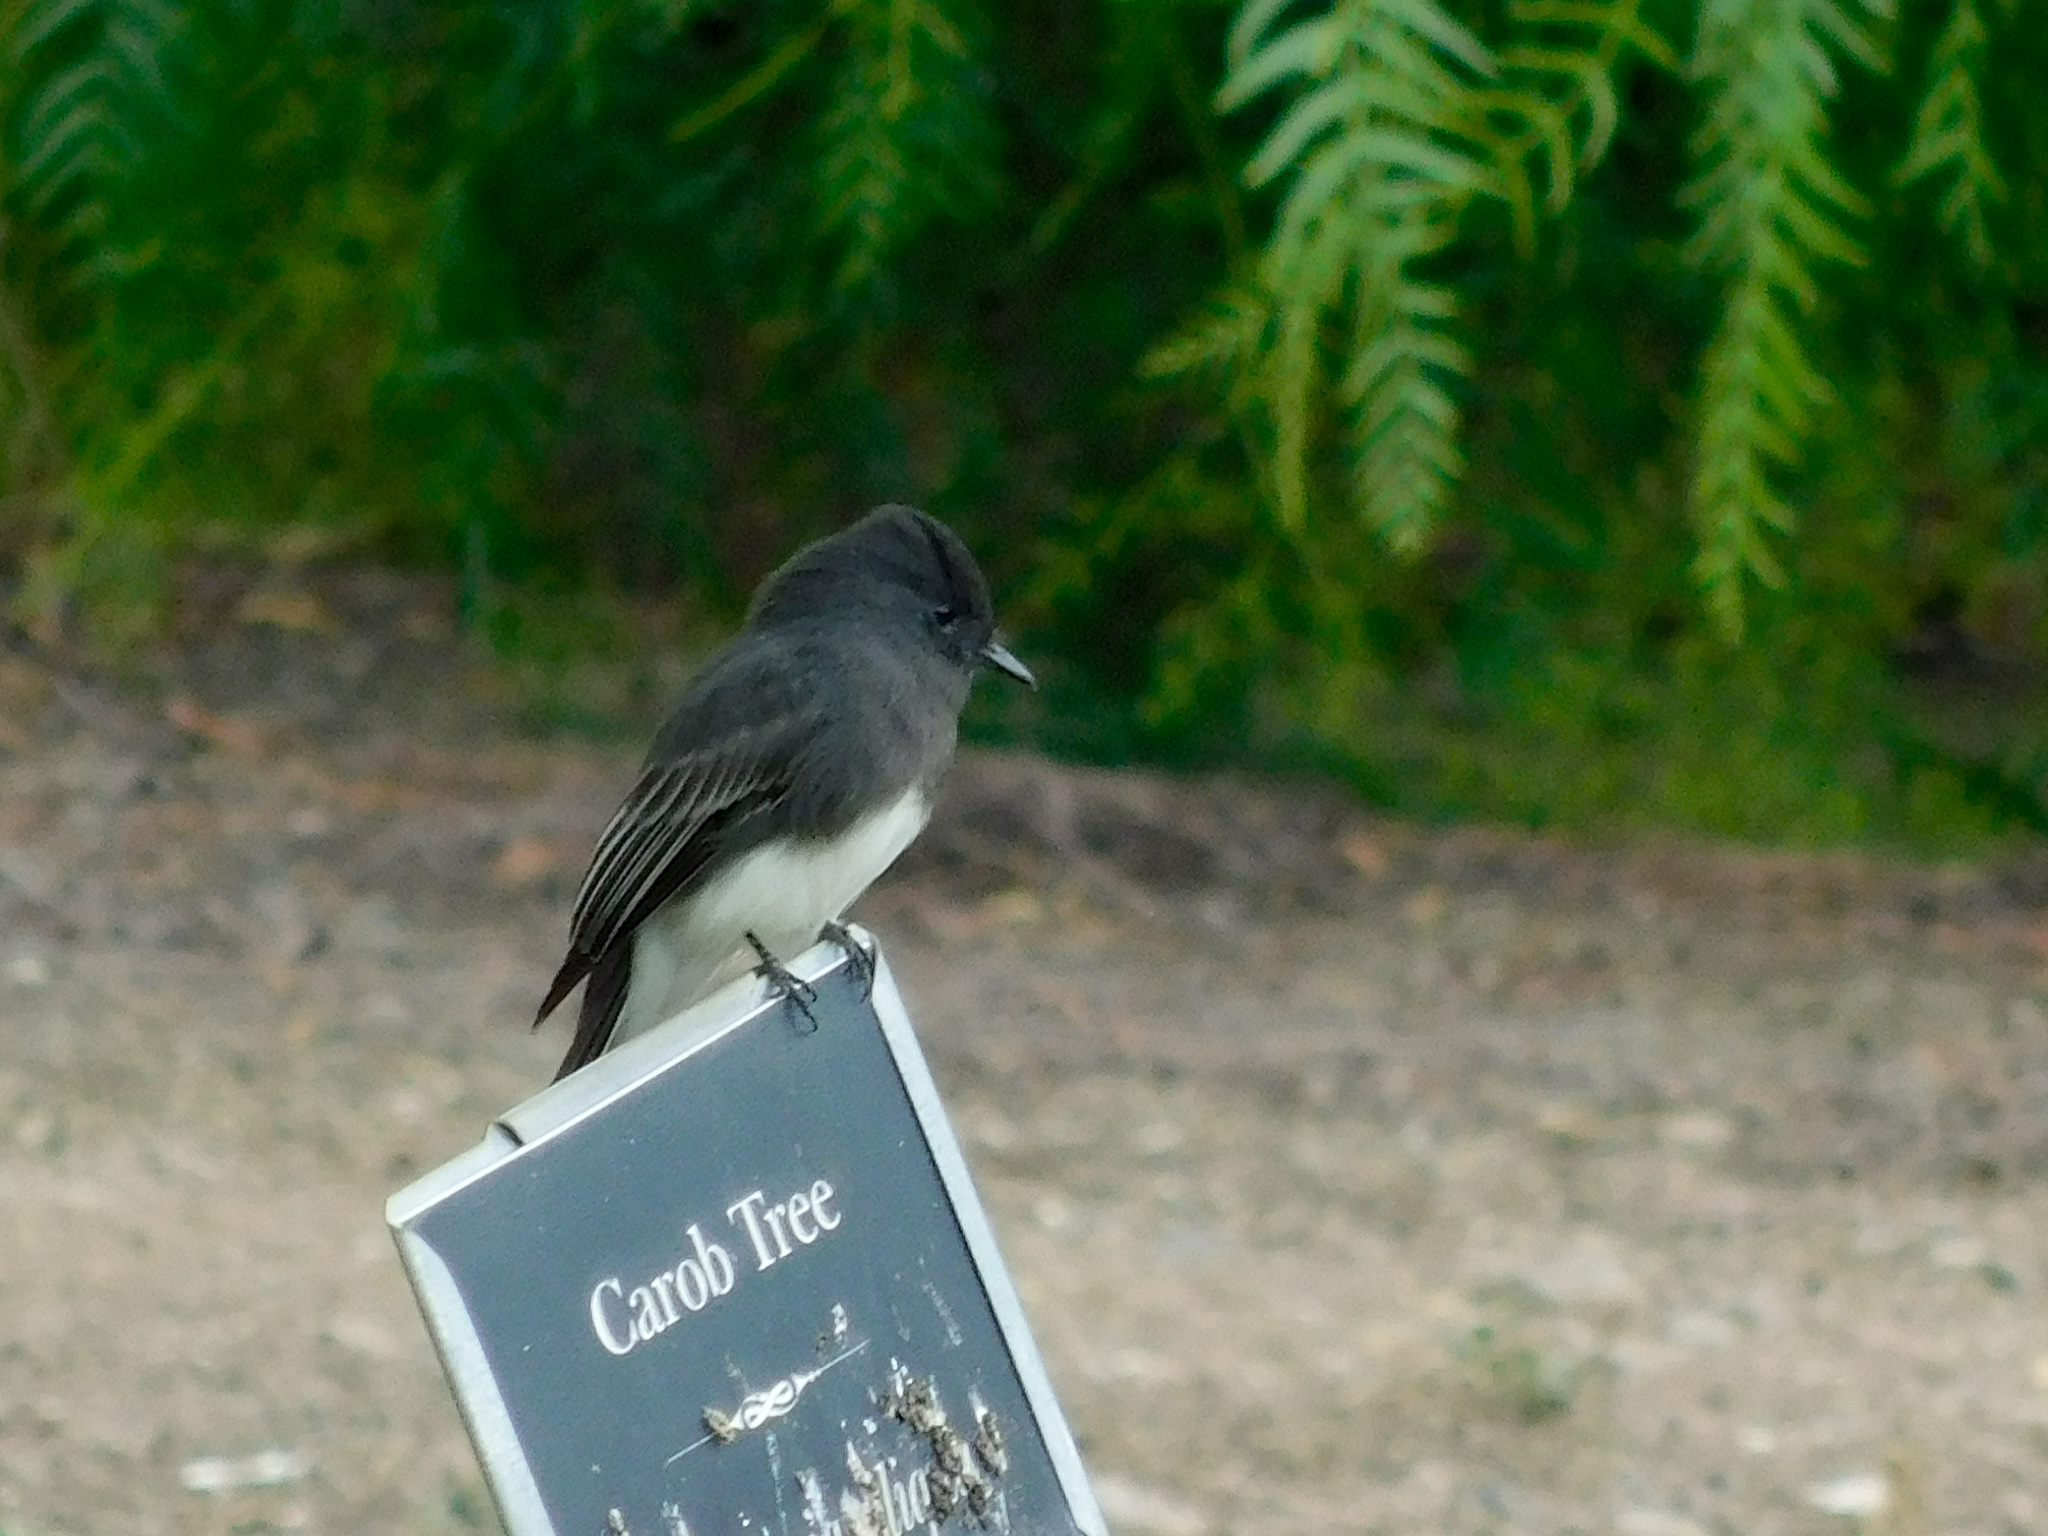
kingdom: Animalia
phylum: Chordata
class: Aves
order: Passeriformes
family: Tyrannidae
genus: Sayornis
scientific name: Sayornis nigricans
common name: Black phoebe
